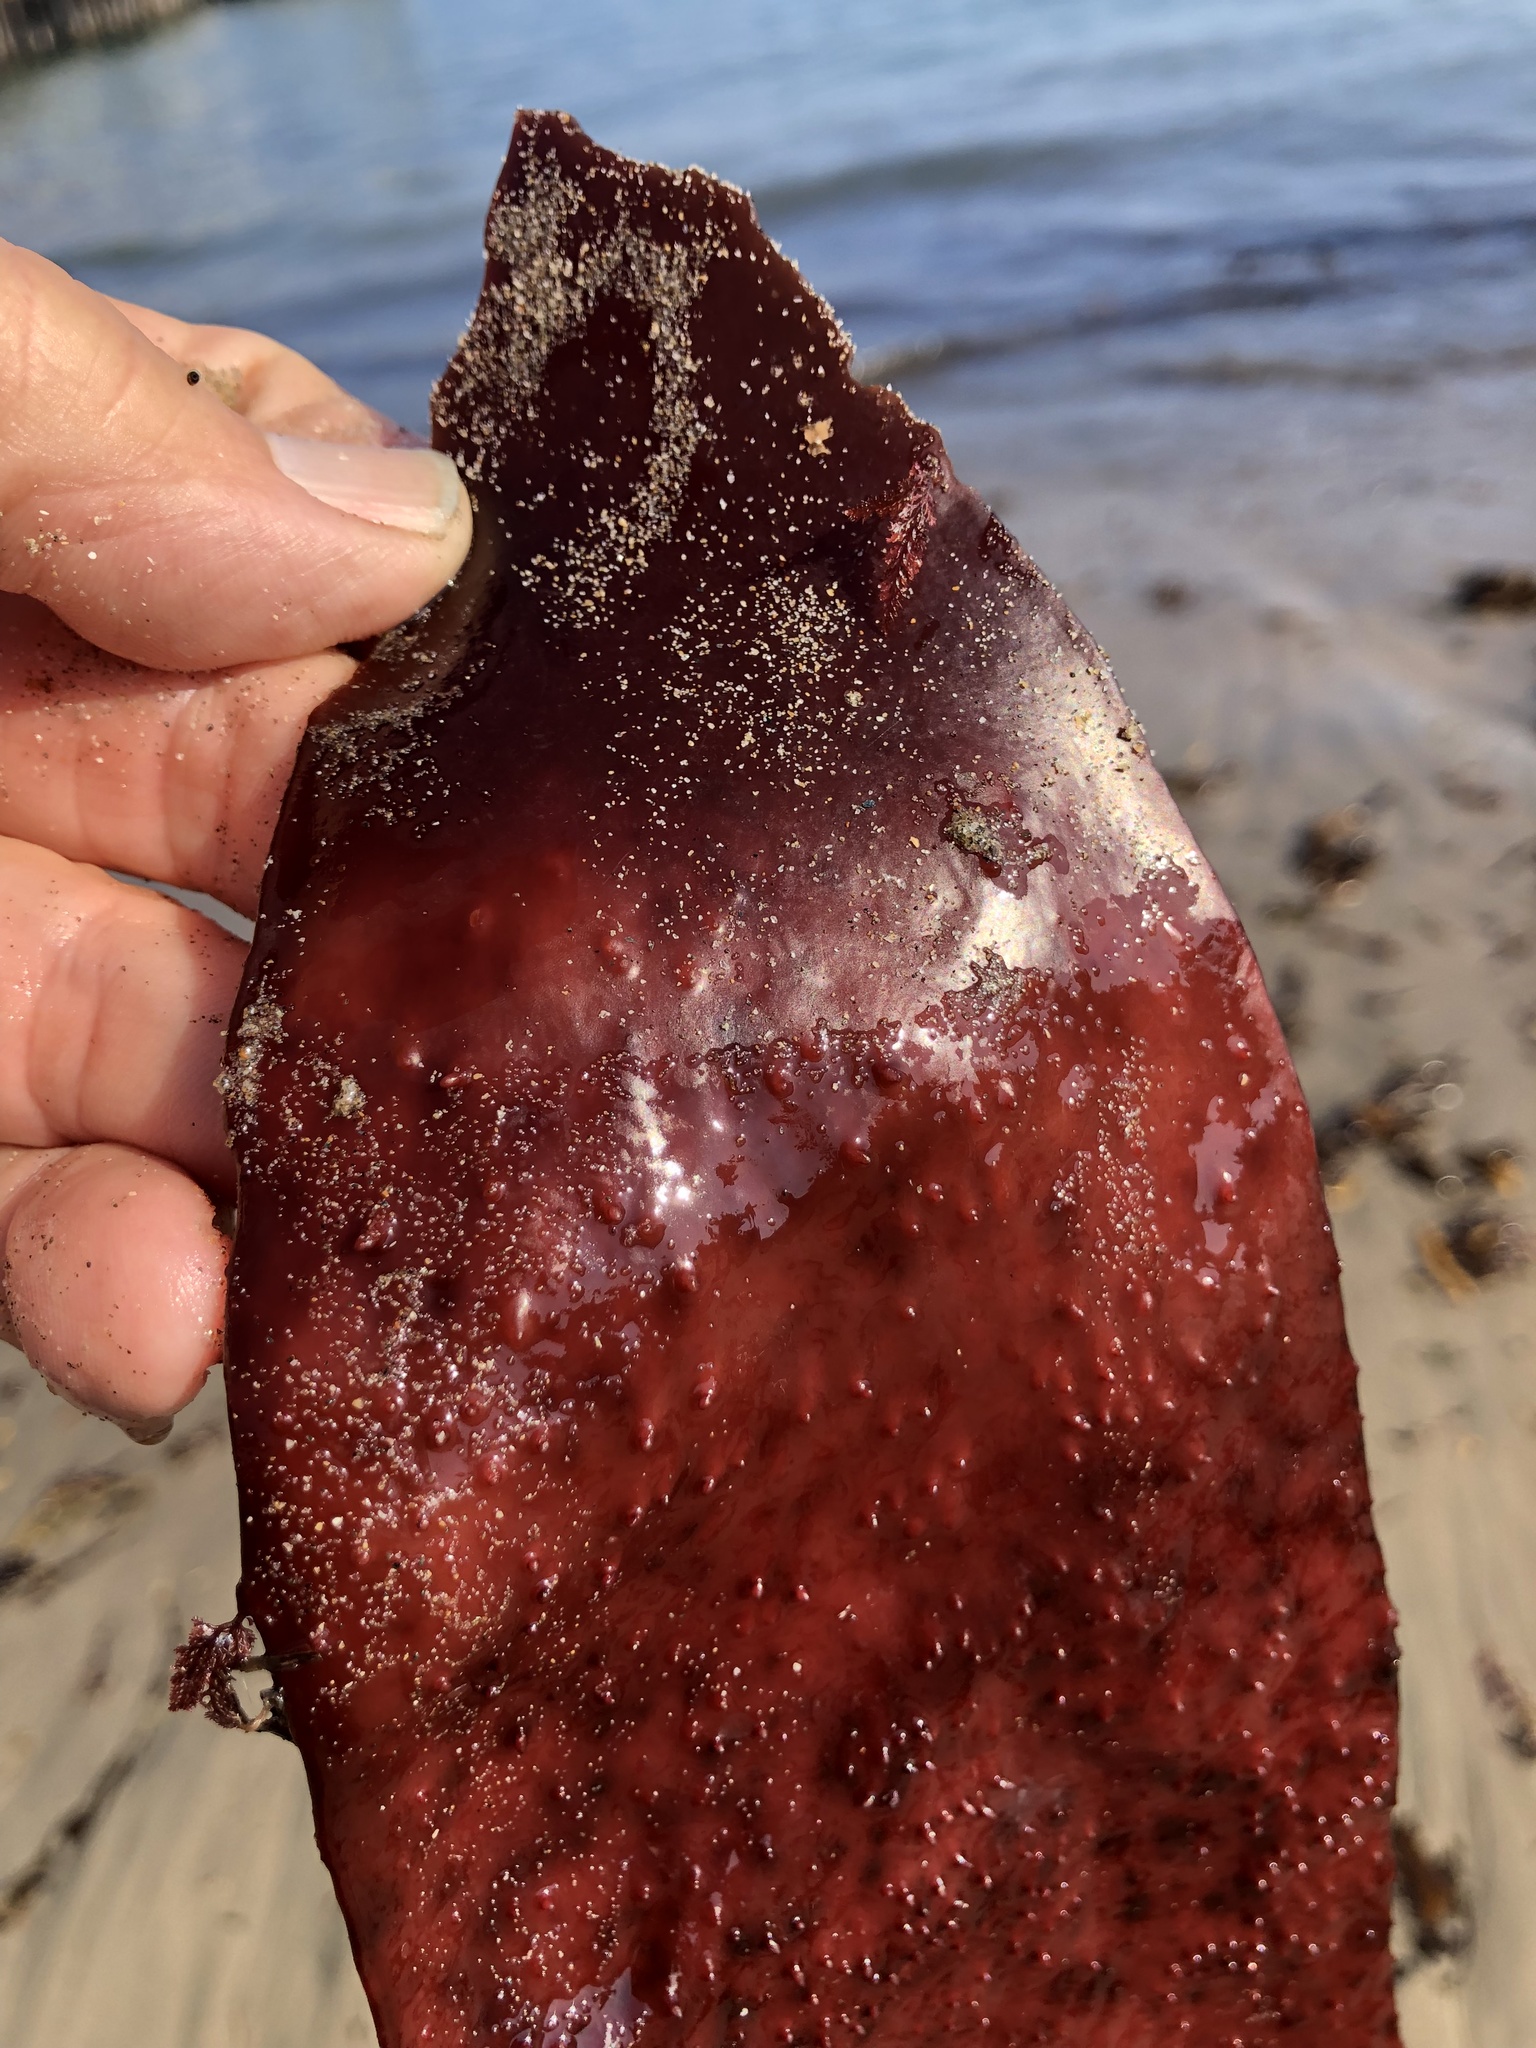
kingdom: Plantae
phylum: Rhodophyta
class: Florideophyceae
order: Gigartinales
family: Gigartinaceae
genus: Chondracanthus
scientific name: Chondracanthus exasperatus
